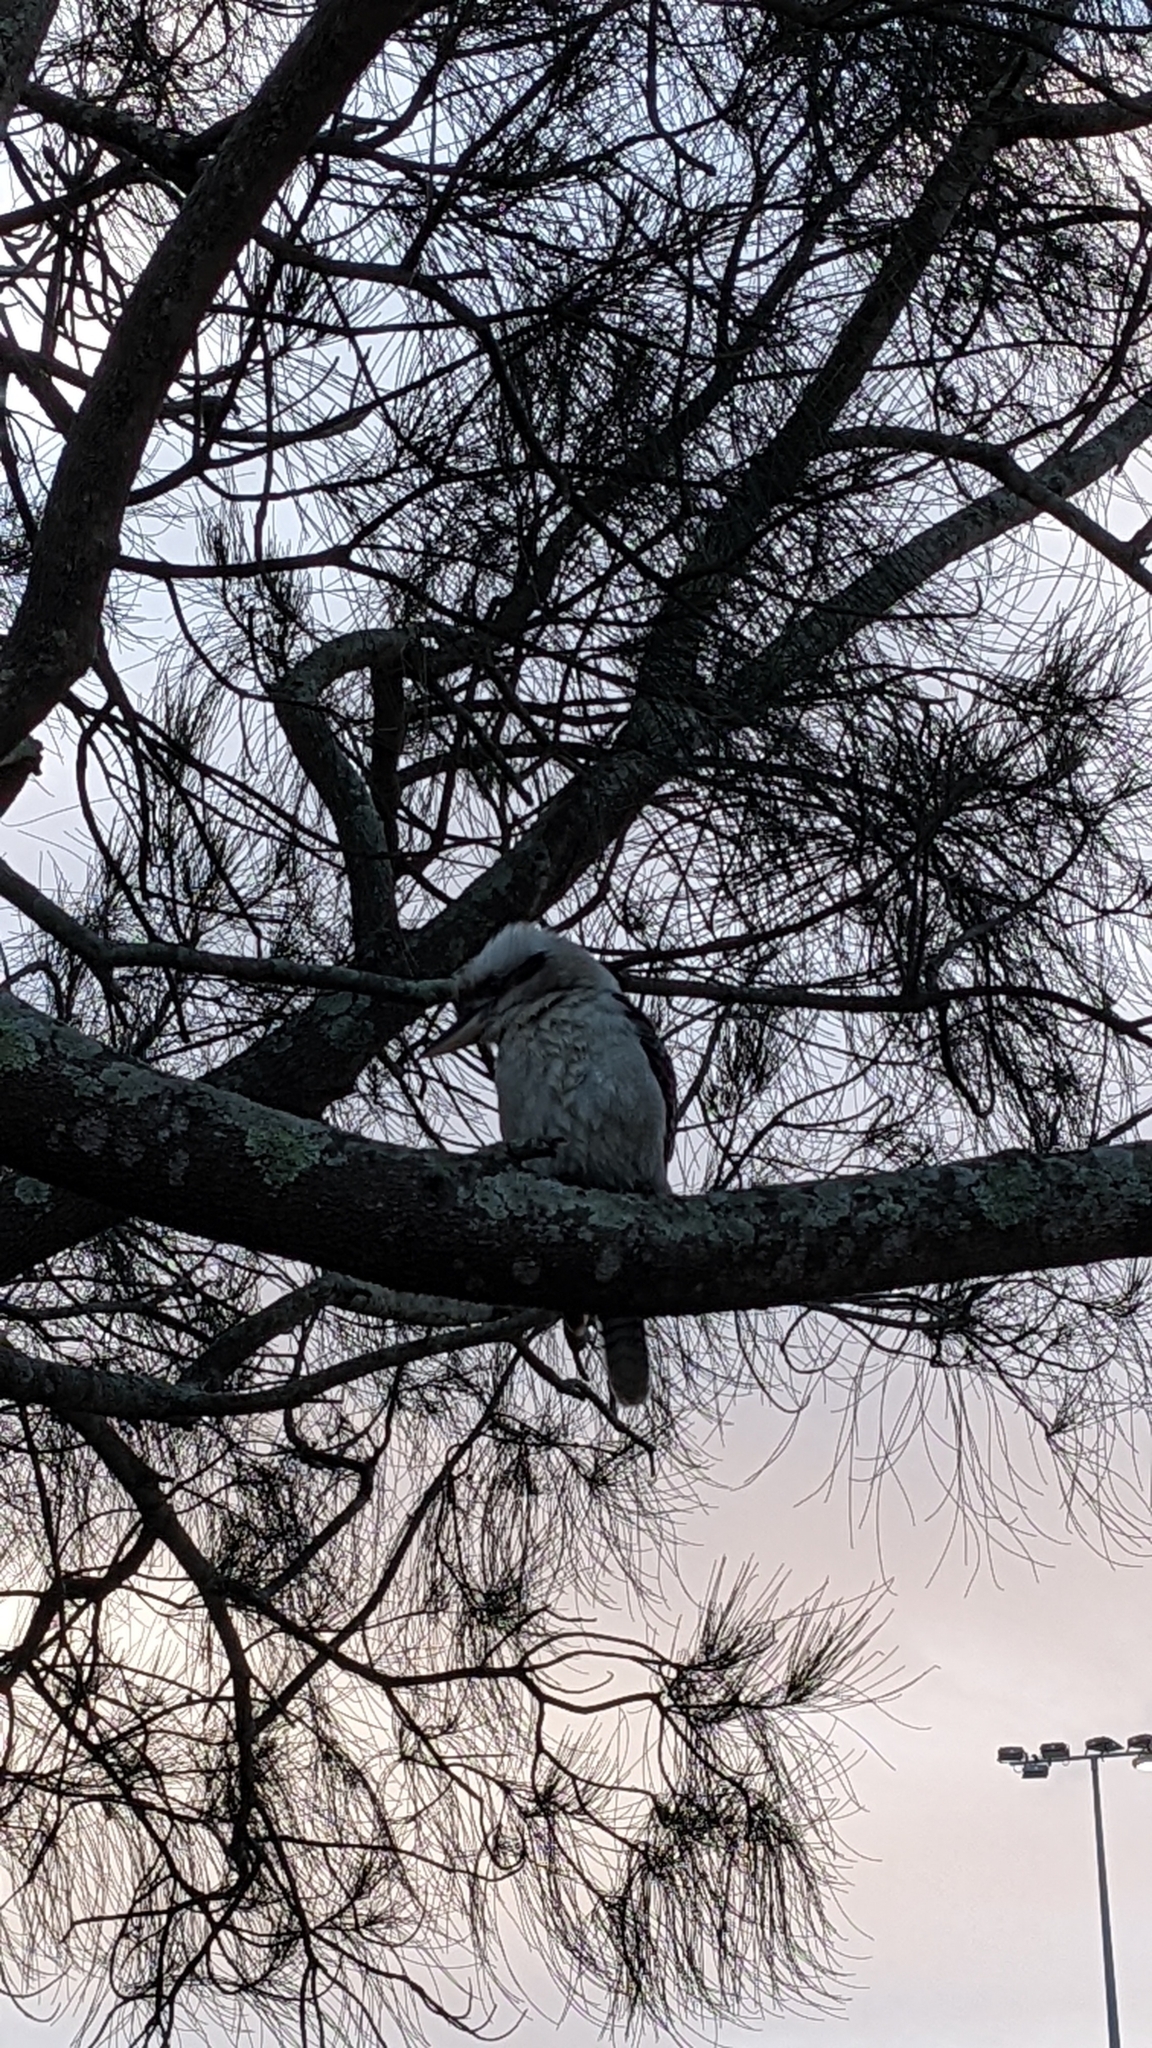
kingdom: Animalia
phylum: Chordata
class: Aves
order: Coraciiformes
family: Alcedinidae
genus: Dacelo
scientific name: Dacelo novaeguineae
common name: Laughing kookaburra
